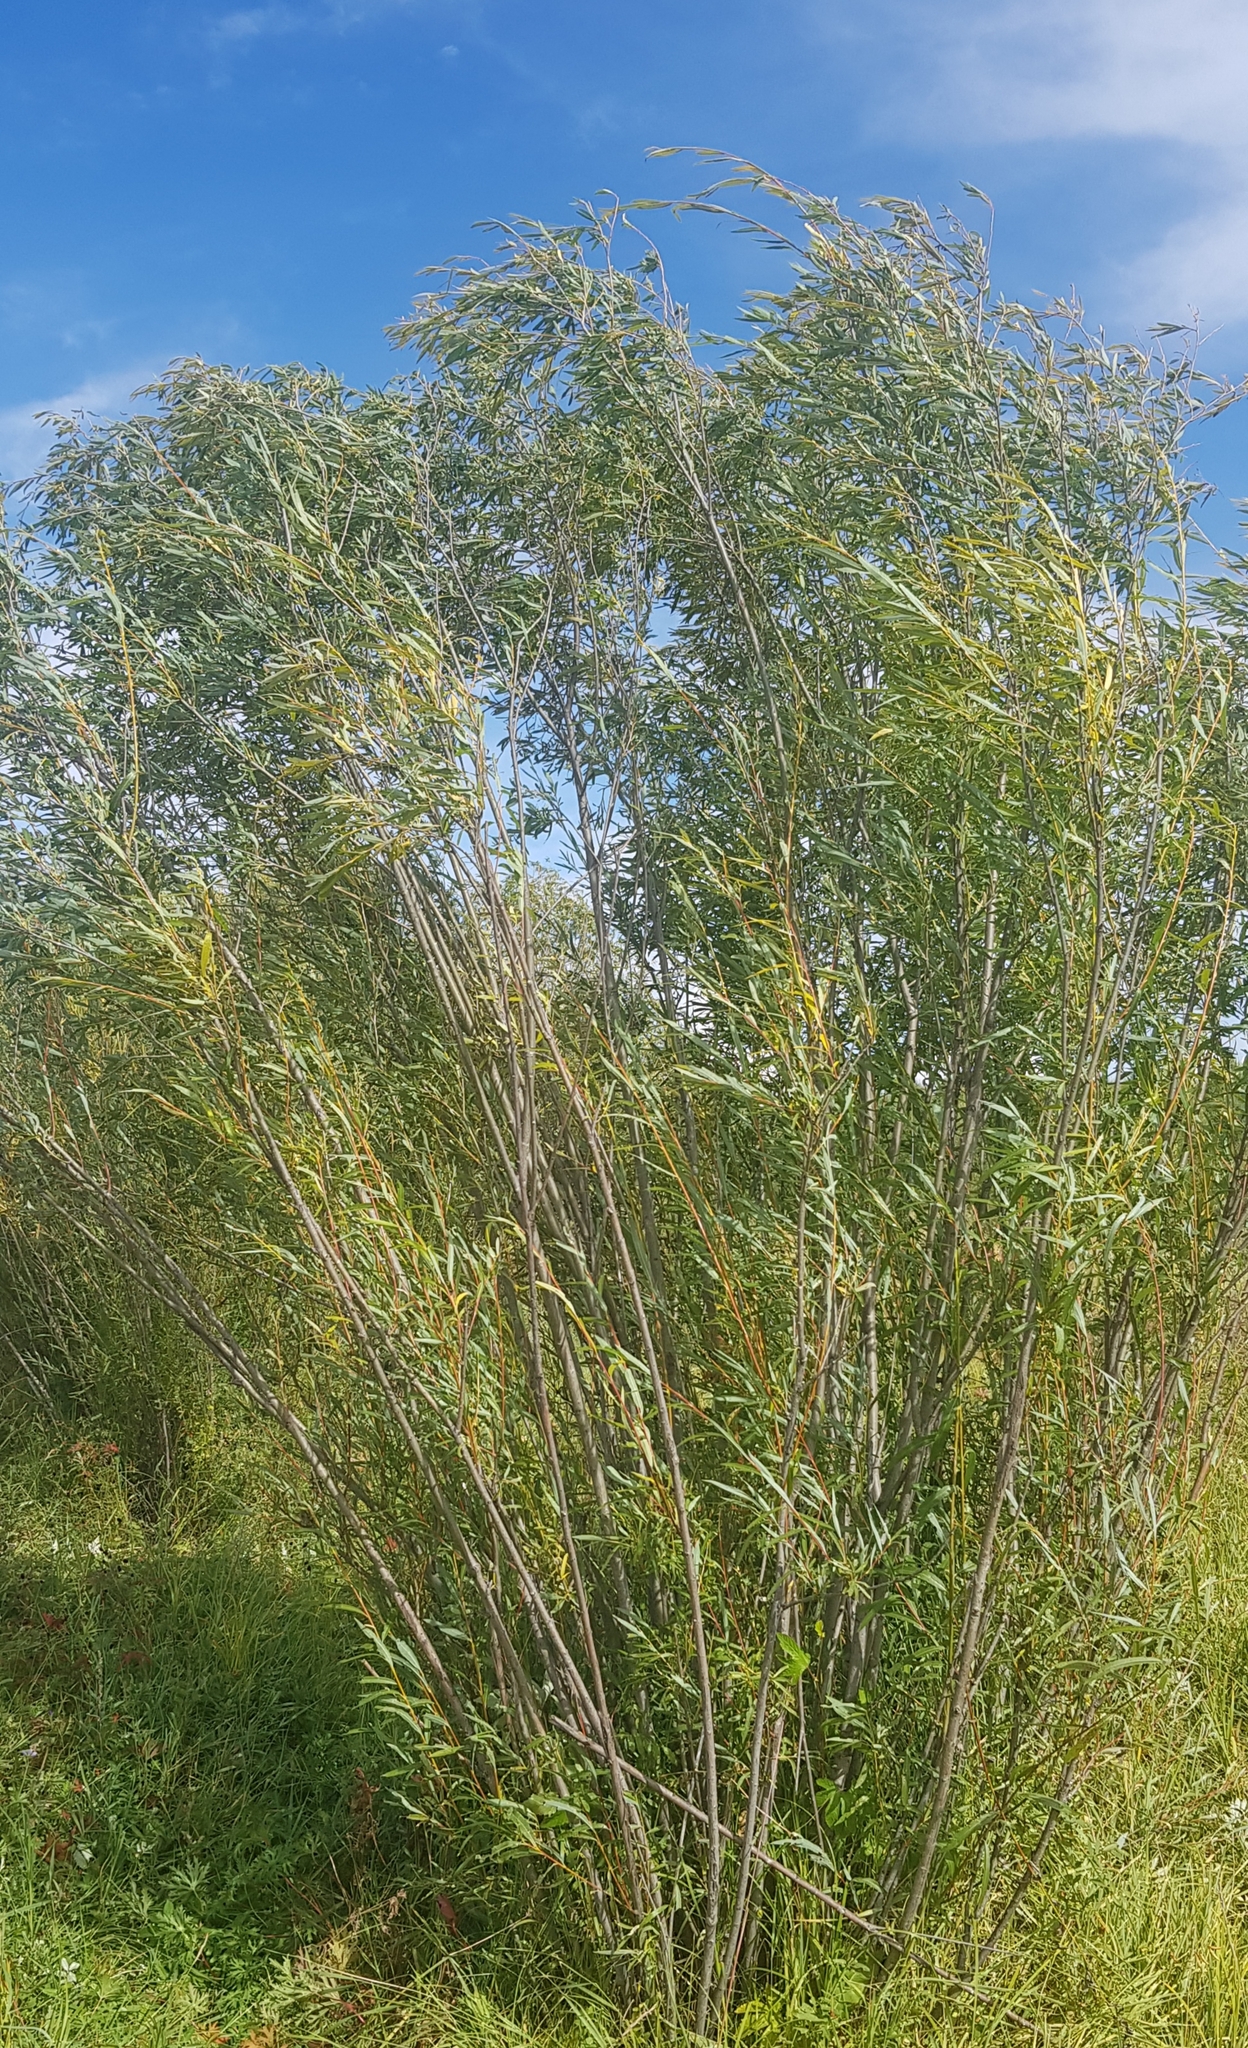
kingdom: Plantae
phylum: Tracheophyta
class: Magnoliopsida
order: Malpighiales
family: Salicaceae
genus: Salix
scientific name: Salix schwerinii
